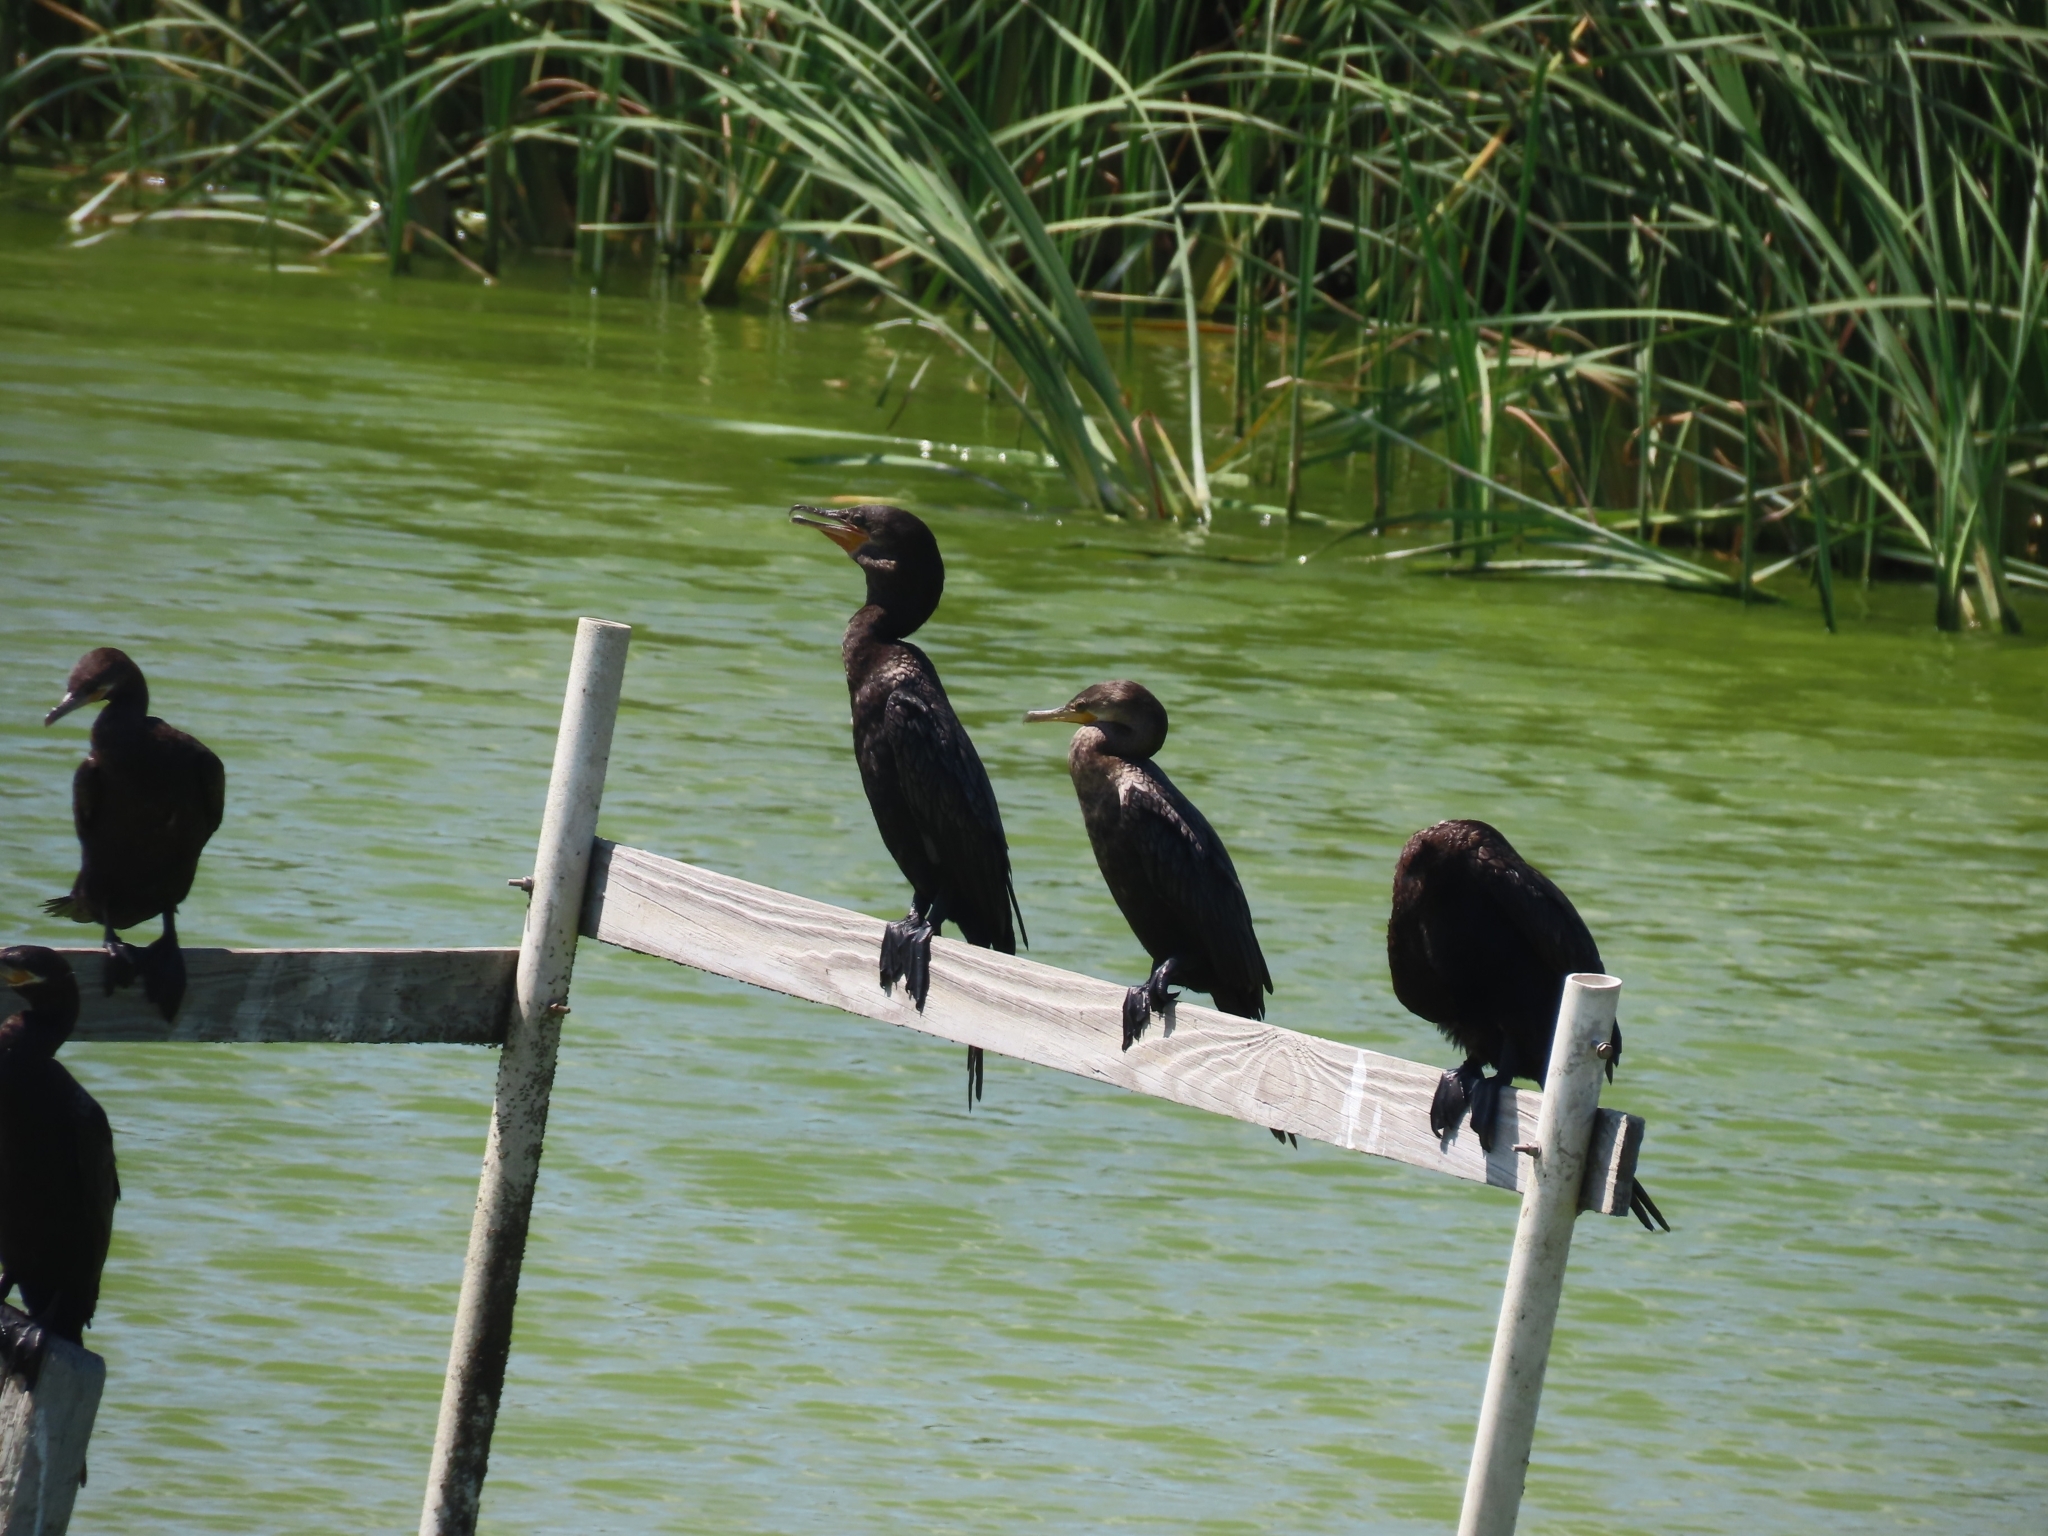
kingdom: Animalia
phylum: Chordata
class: Aves
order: Suliformes
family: Phalacrocoracidae
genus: Phalacrocorax
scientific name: Phalacrocorax brasilianus
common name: Neotropic cormorant
